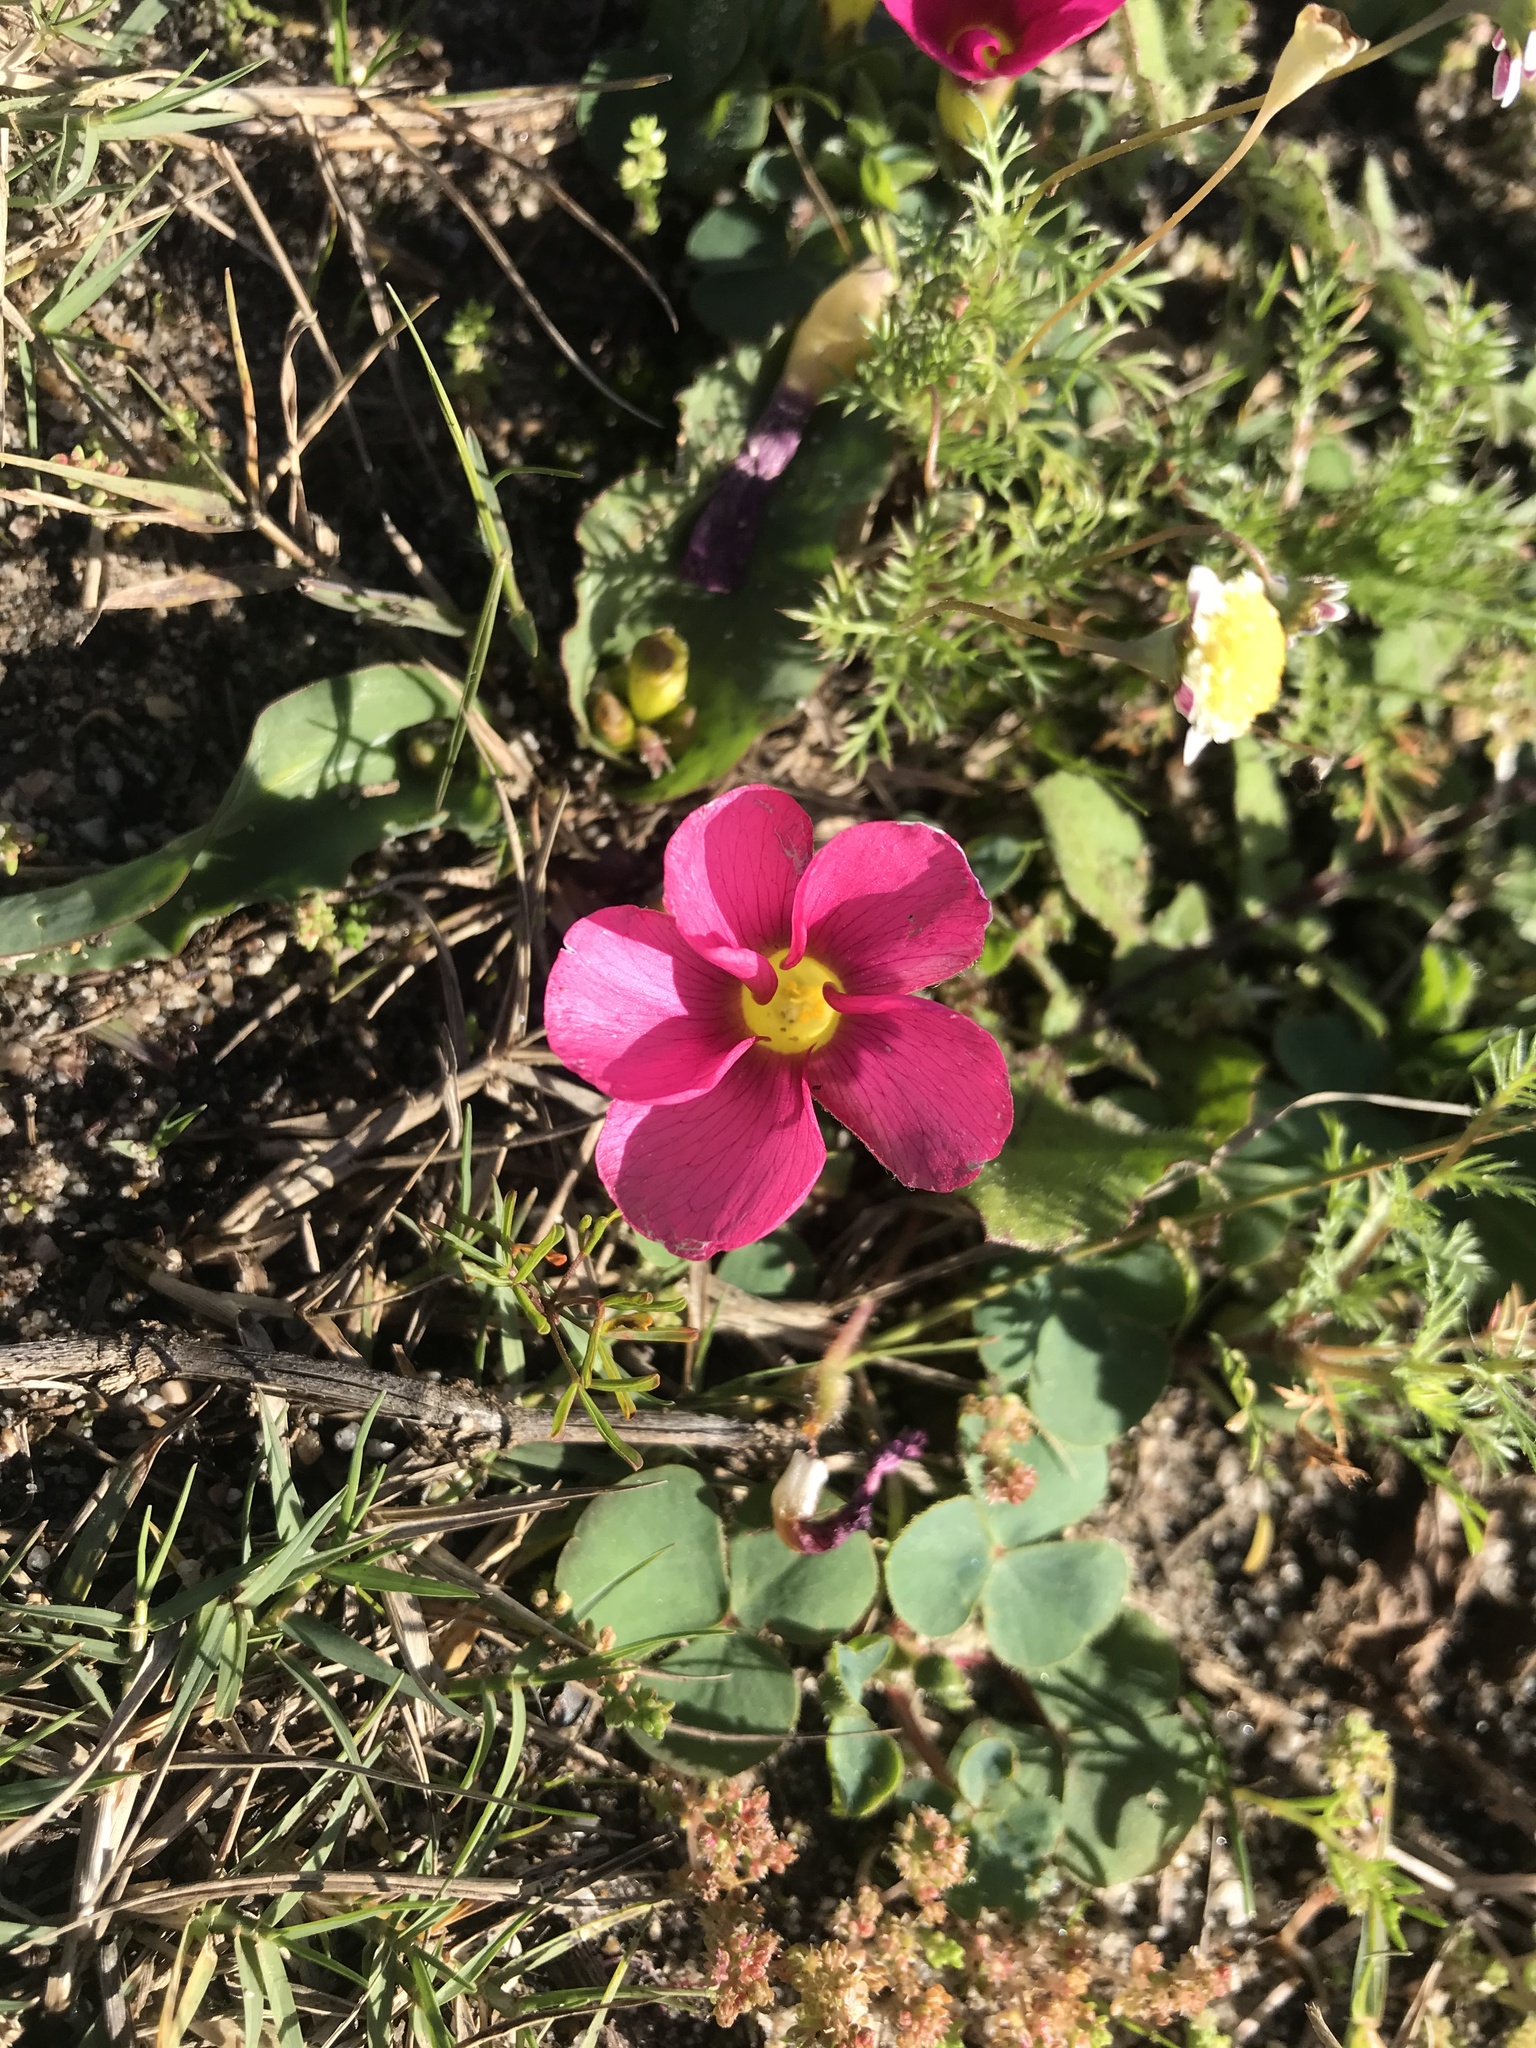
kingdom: Plantae
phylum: Tracheophyta
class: Magnoliopsida
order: Oxalidales
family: Oxalidaceae
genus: Oxalis
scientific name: Oxalis purpurea
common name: Purple woodsorrel
